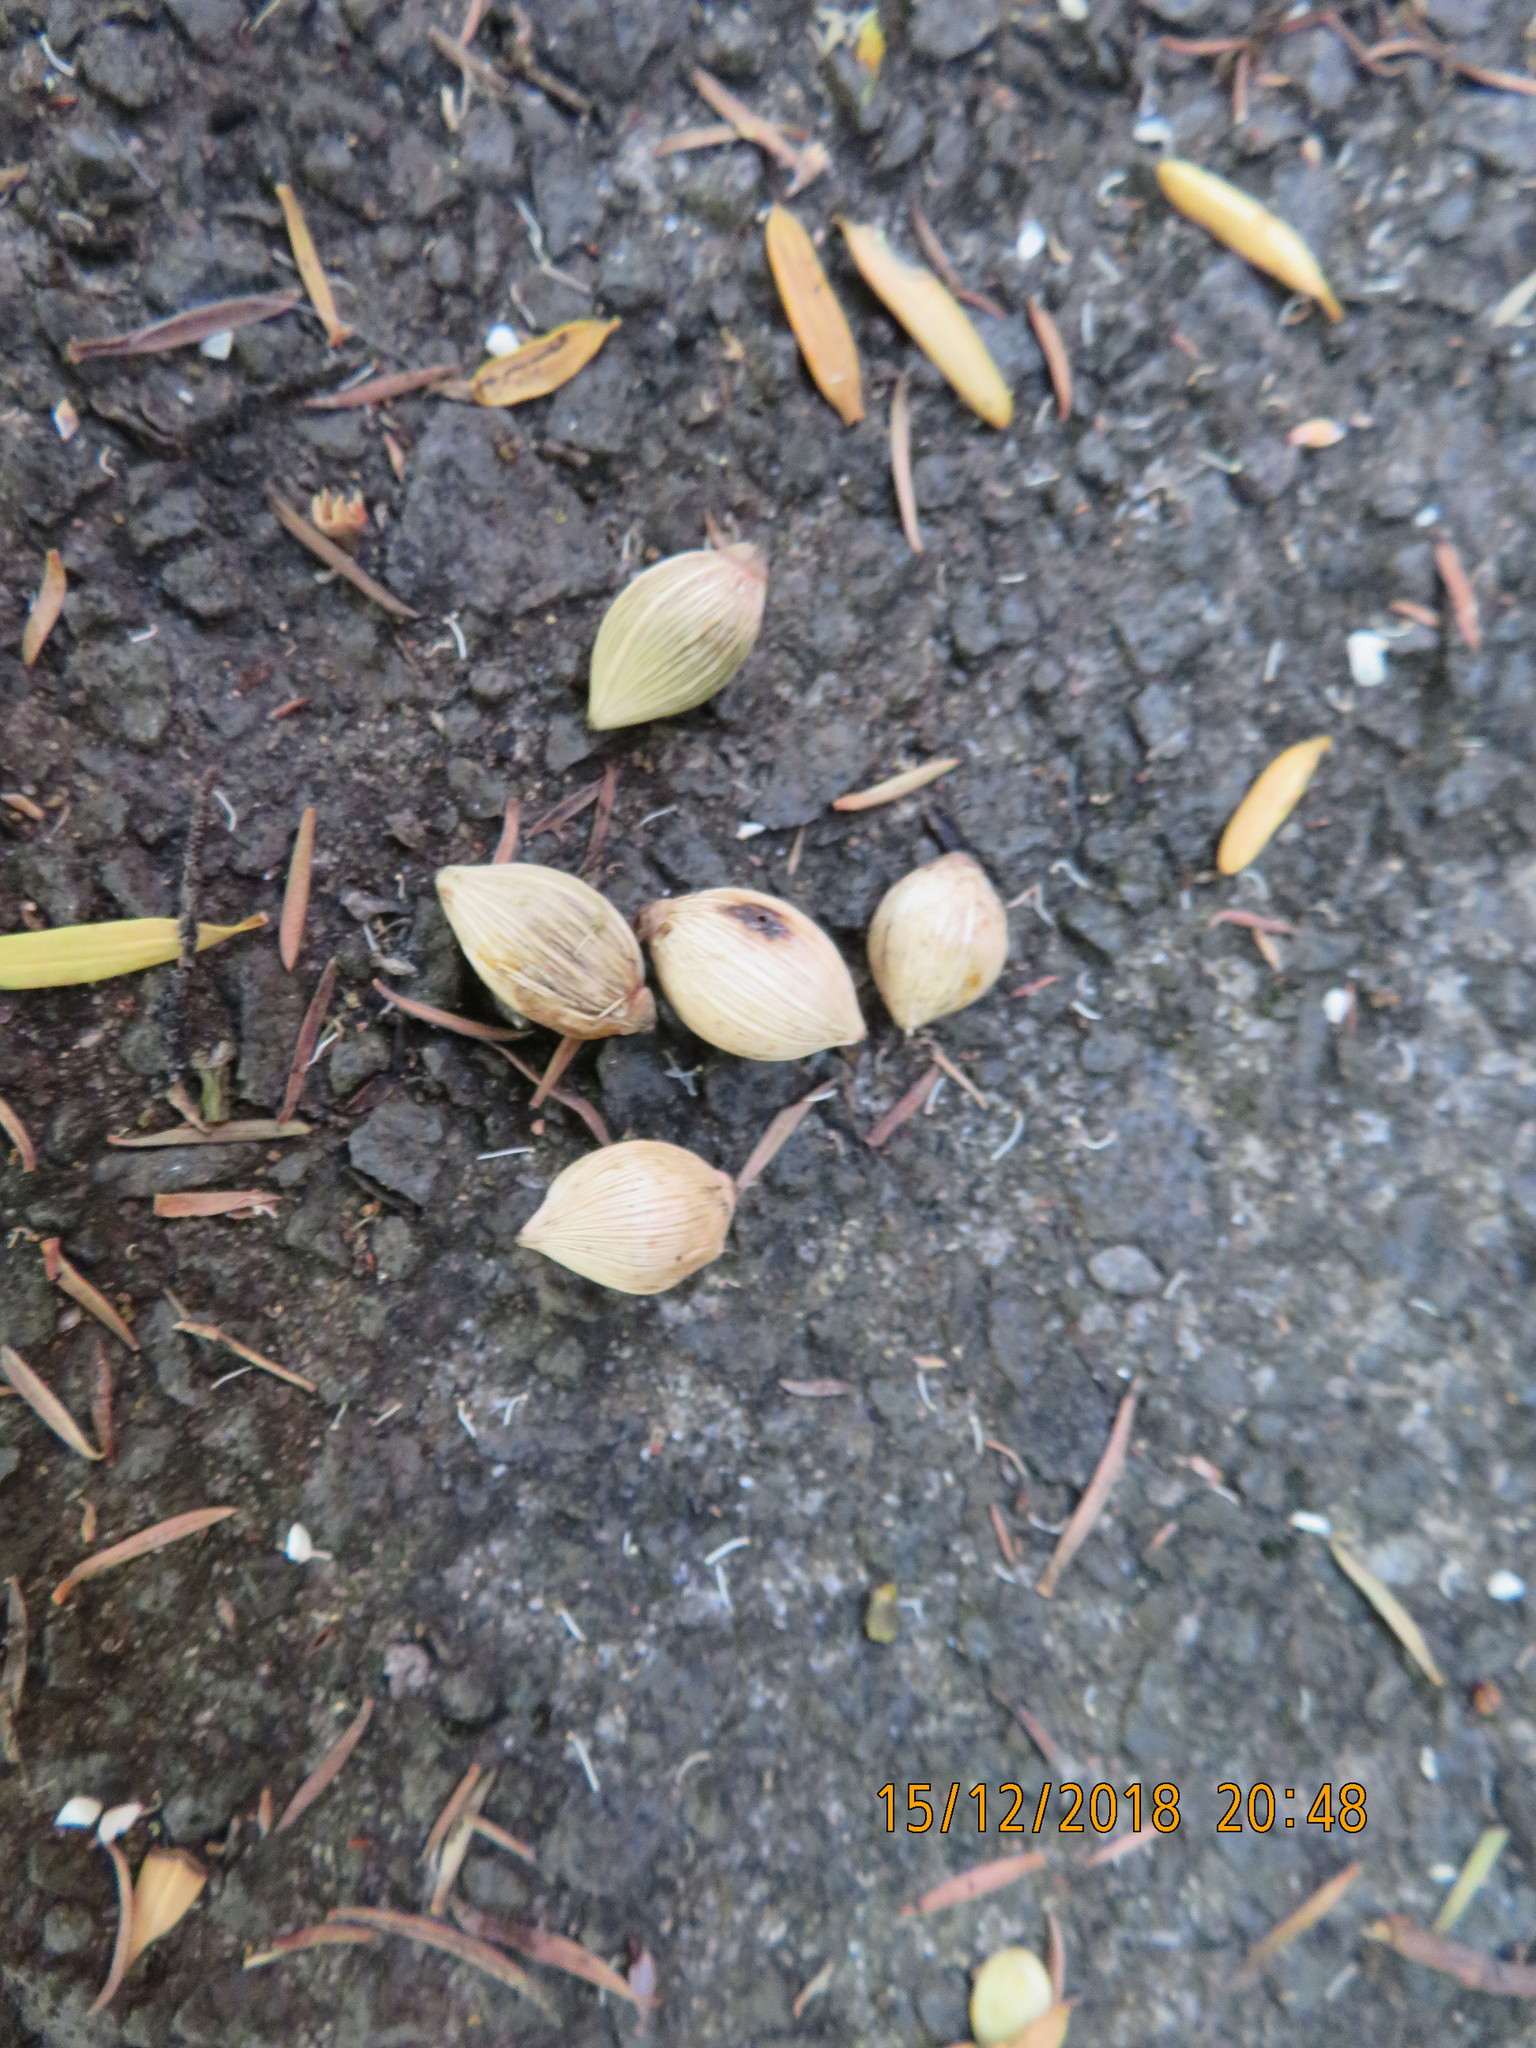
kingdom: Plantae
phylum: Tracheophyta
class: Liliopsida
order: Arecales
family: Arecaceae
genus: Rhopalostylis
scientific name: Rhopalostylis sapida
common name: Feather-duster palm
